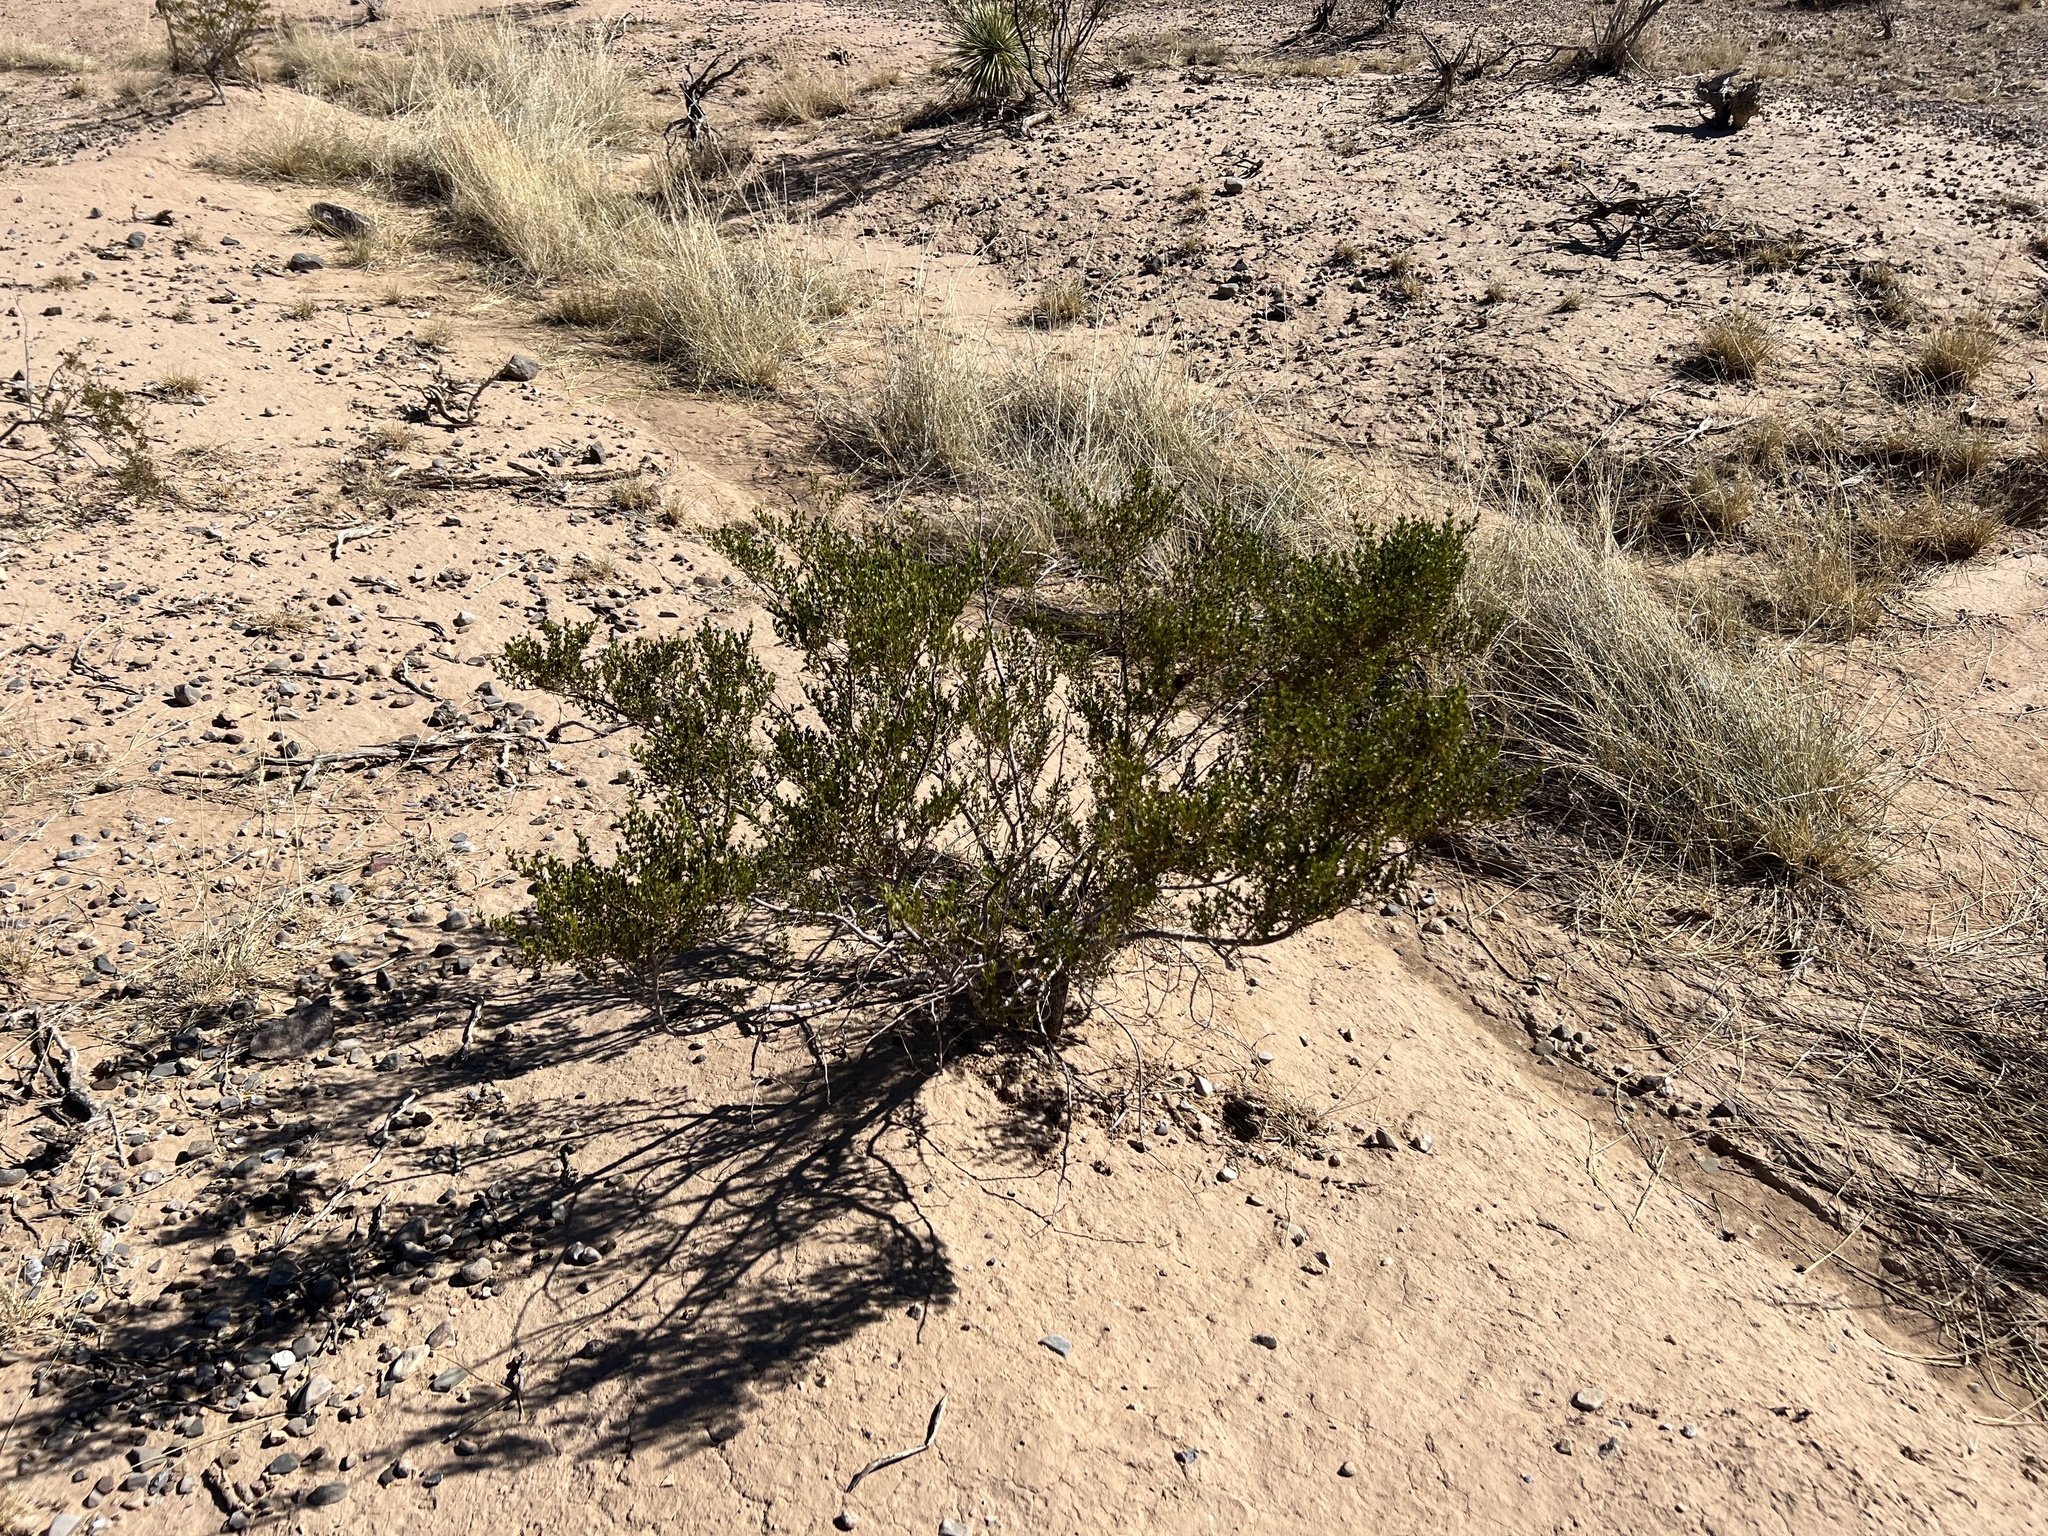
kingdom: Plantae
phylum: Tracheophyta
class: Magnoliopsida
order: Zygophyllales
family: Zygophyllaceae
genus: Larrea
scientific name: Larrea tridentata
